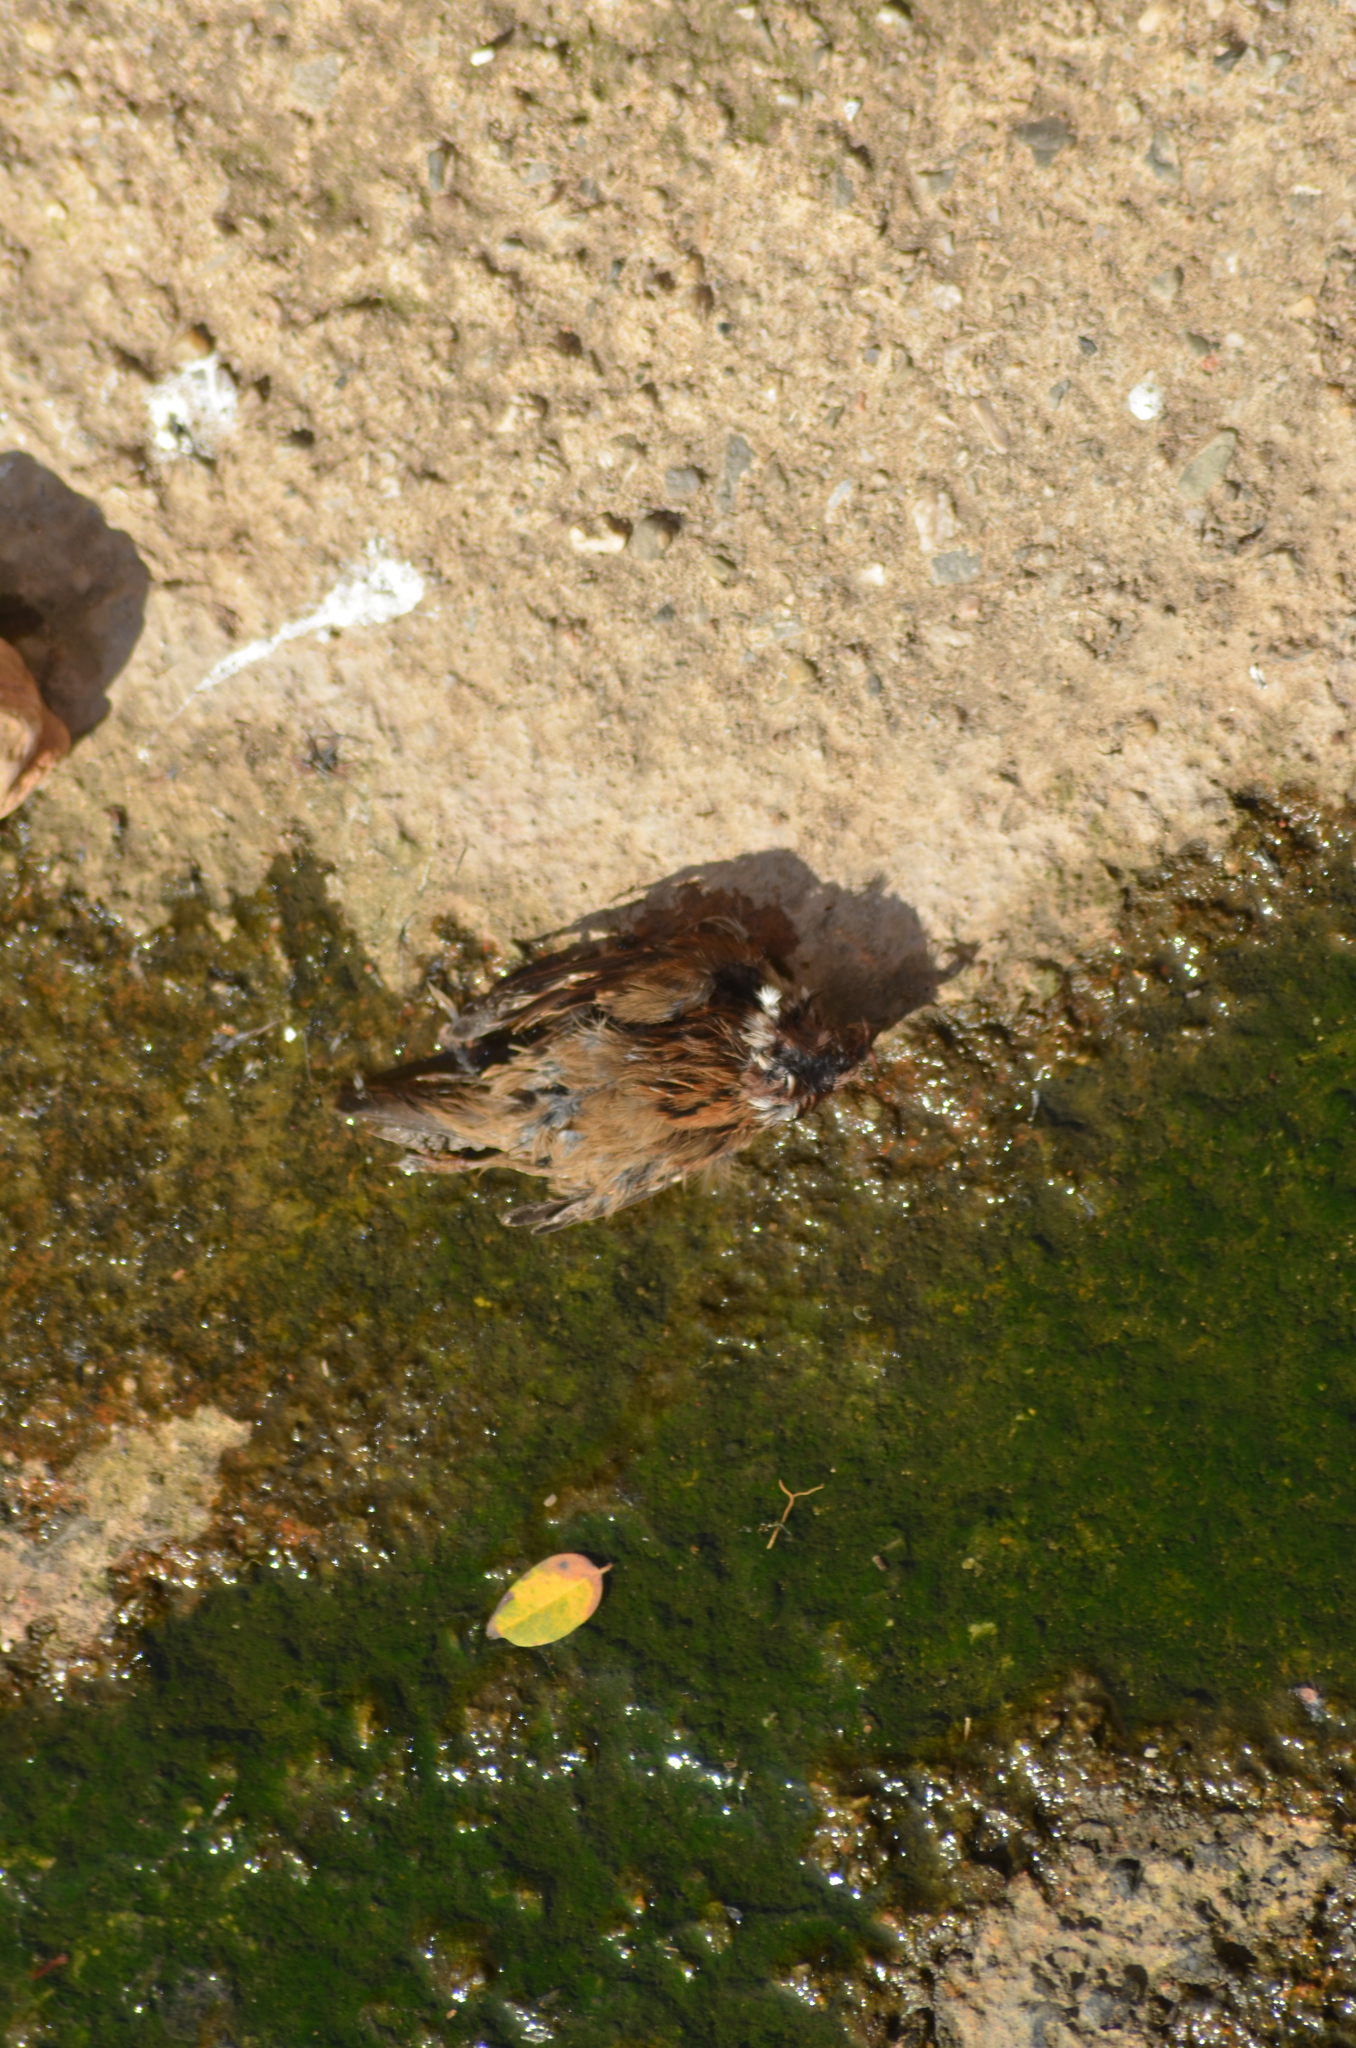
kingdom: Animalia
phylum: Chordata
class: Aves
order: Passeriformes
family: Passeridae
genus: Passer
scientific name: Passer montanus
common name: Eurasian tree sparrow
